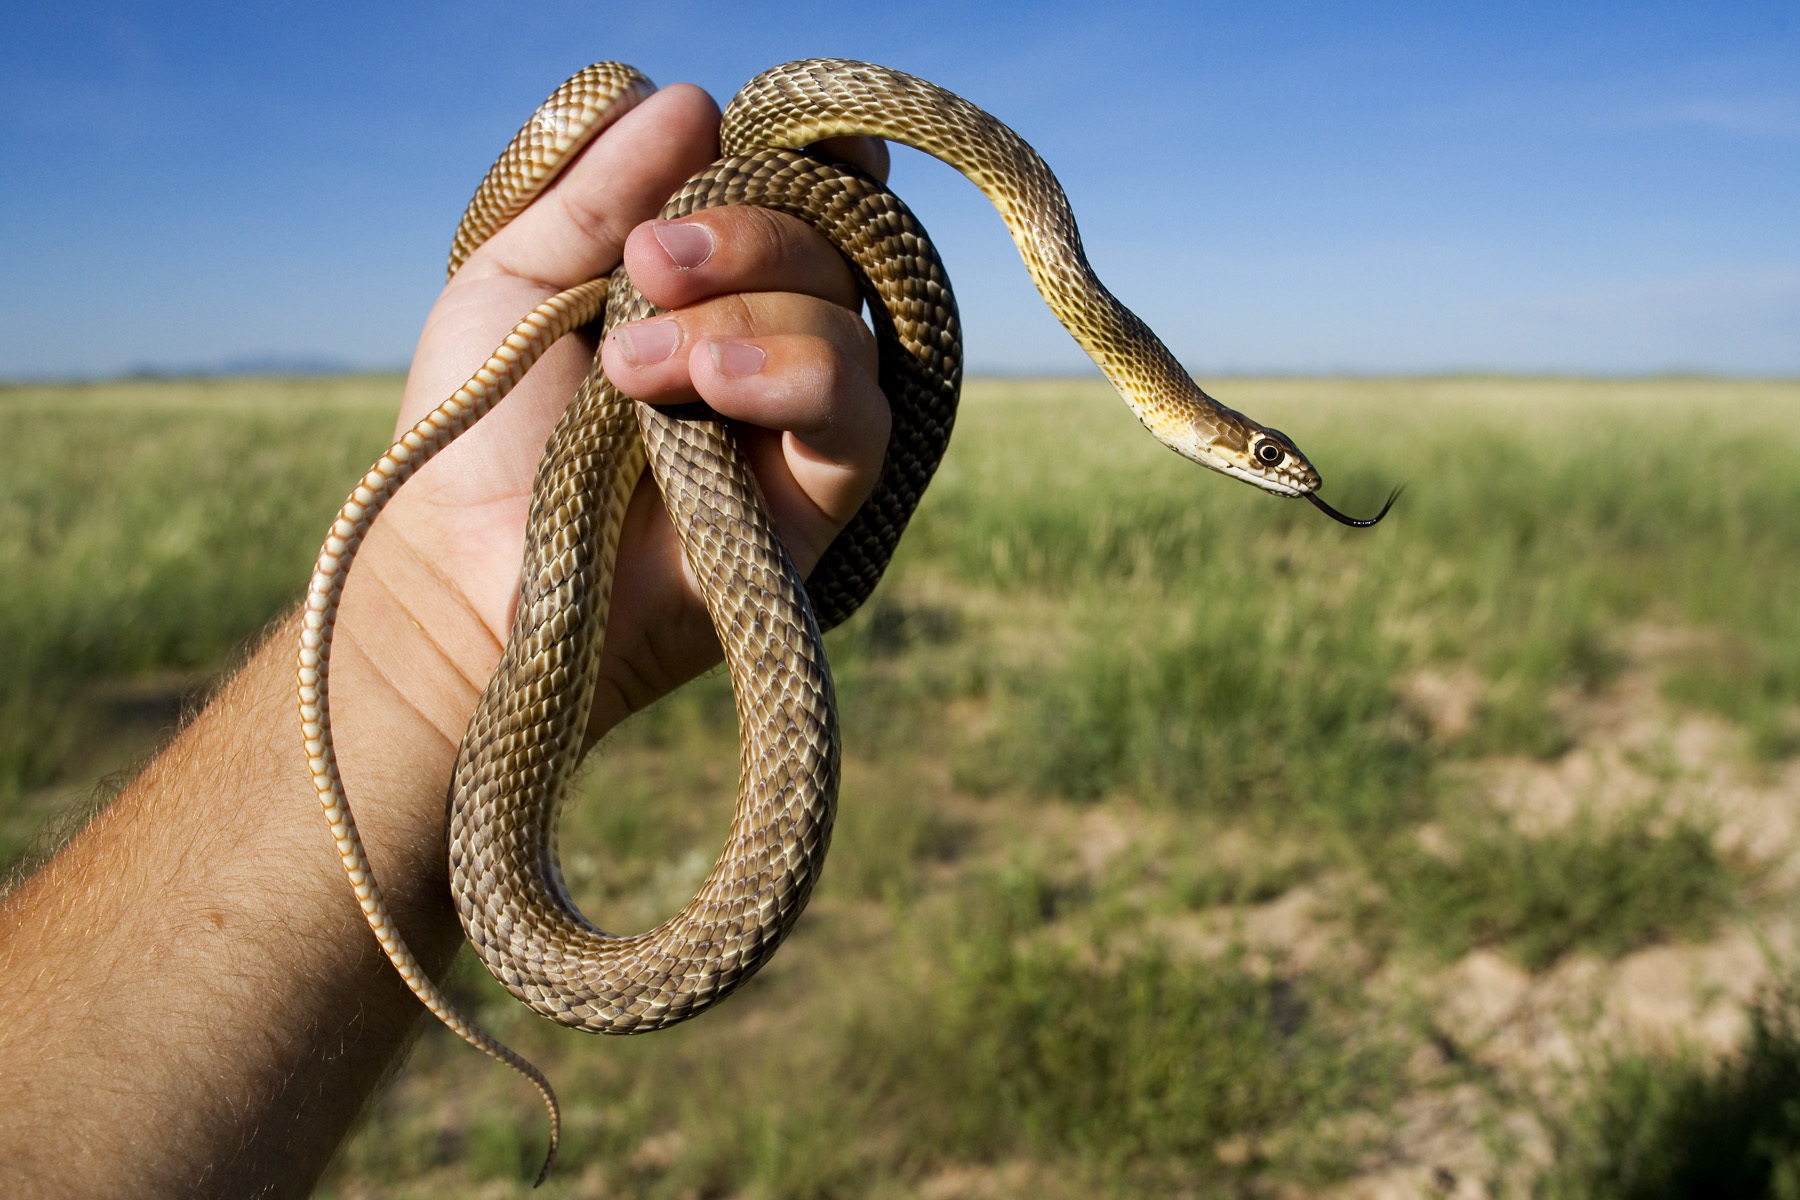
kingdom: Animalia
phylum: Chordata
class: Squamata
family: Colubridae
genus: Masticophis
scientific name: Masticophis flagellum
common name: Coachwhip
